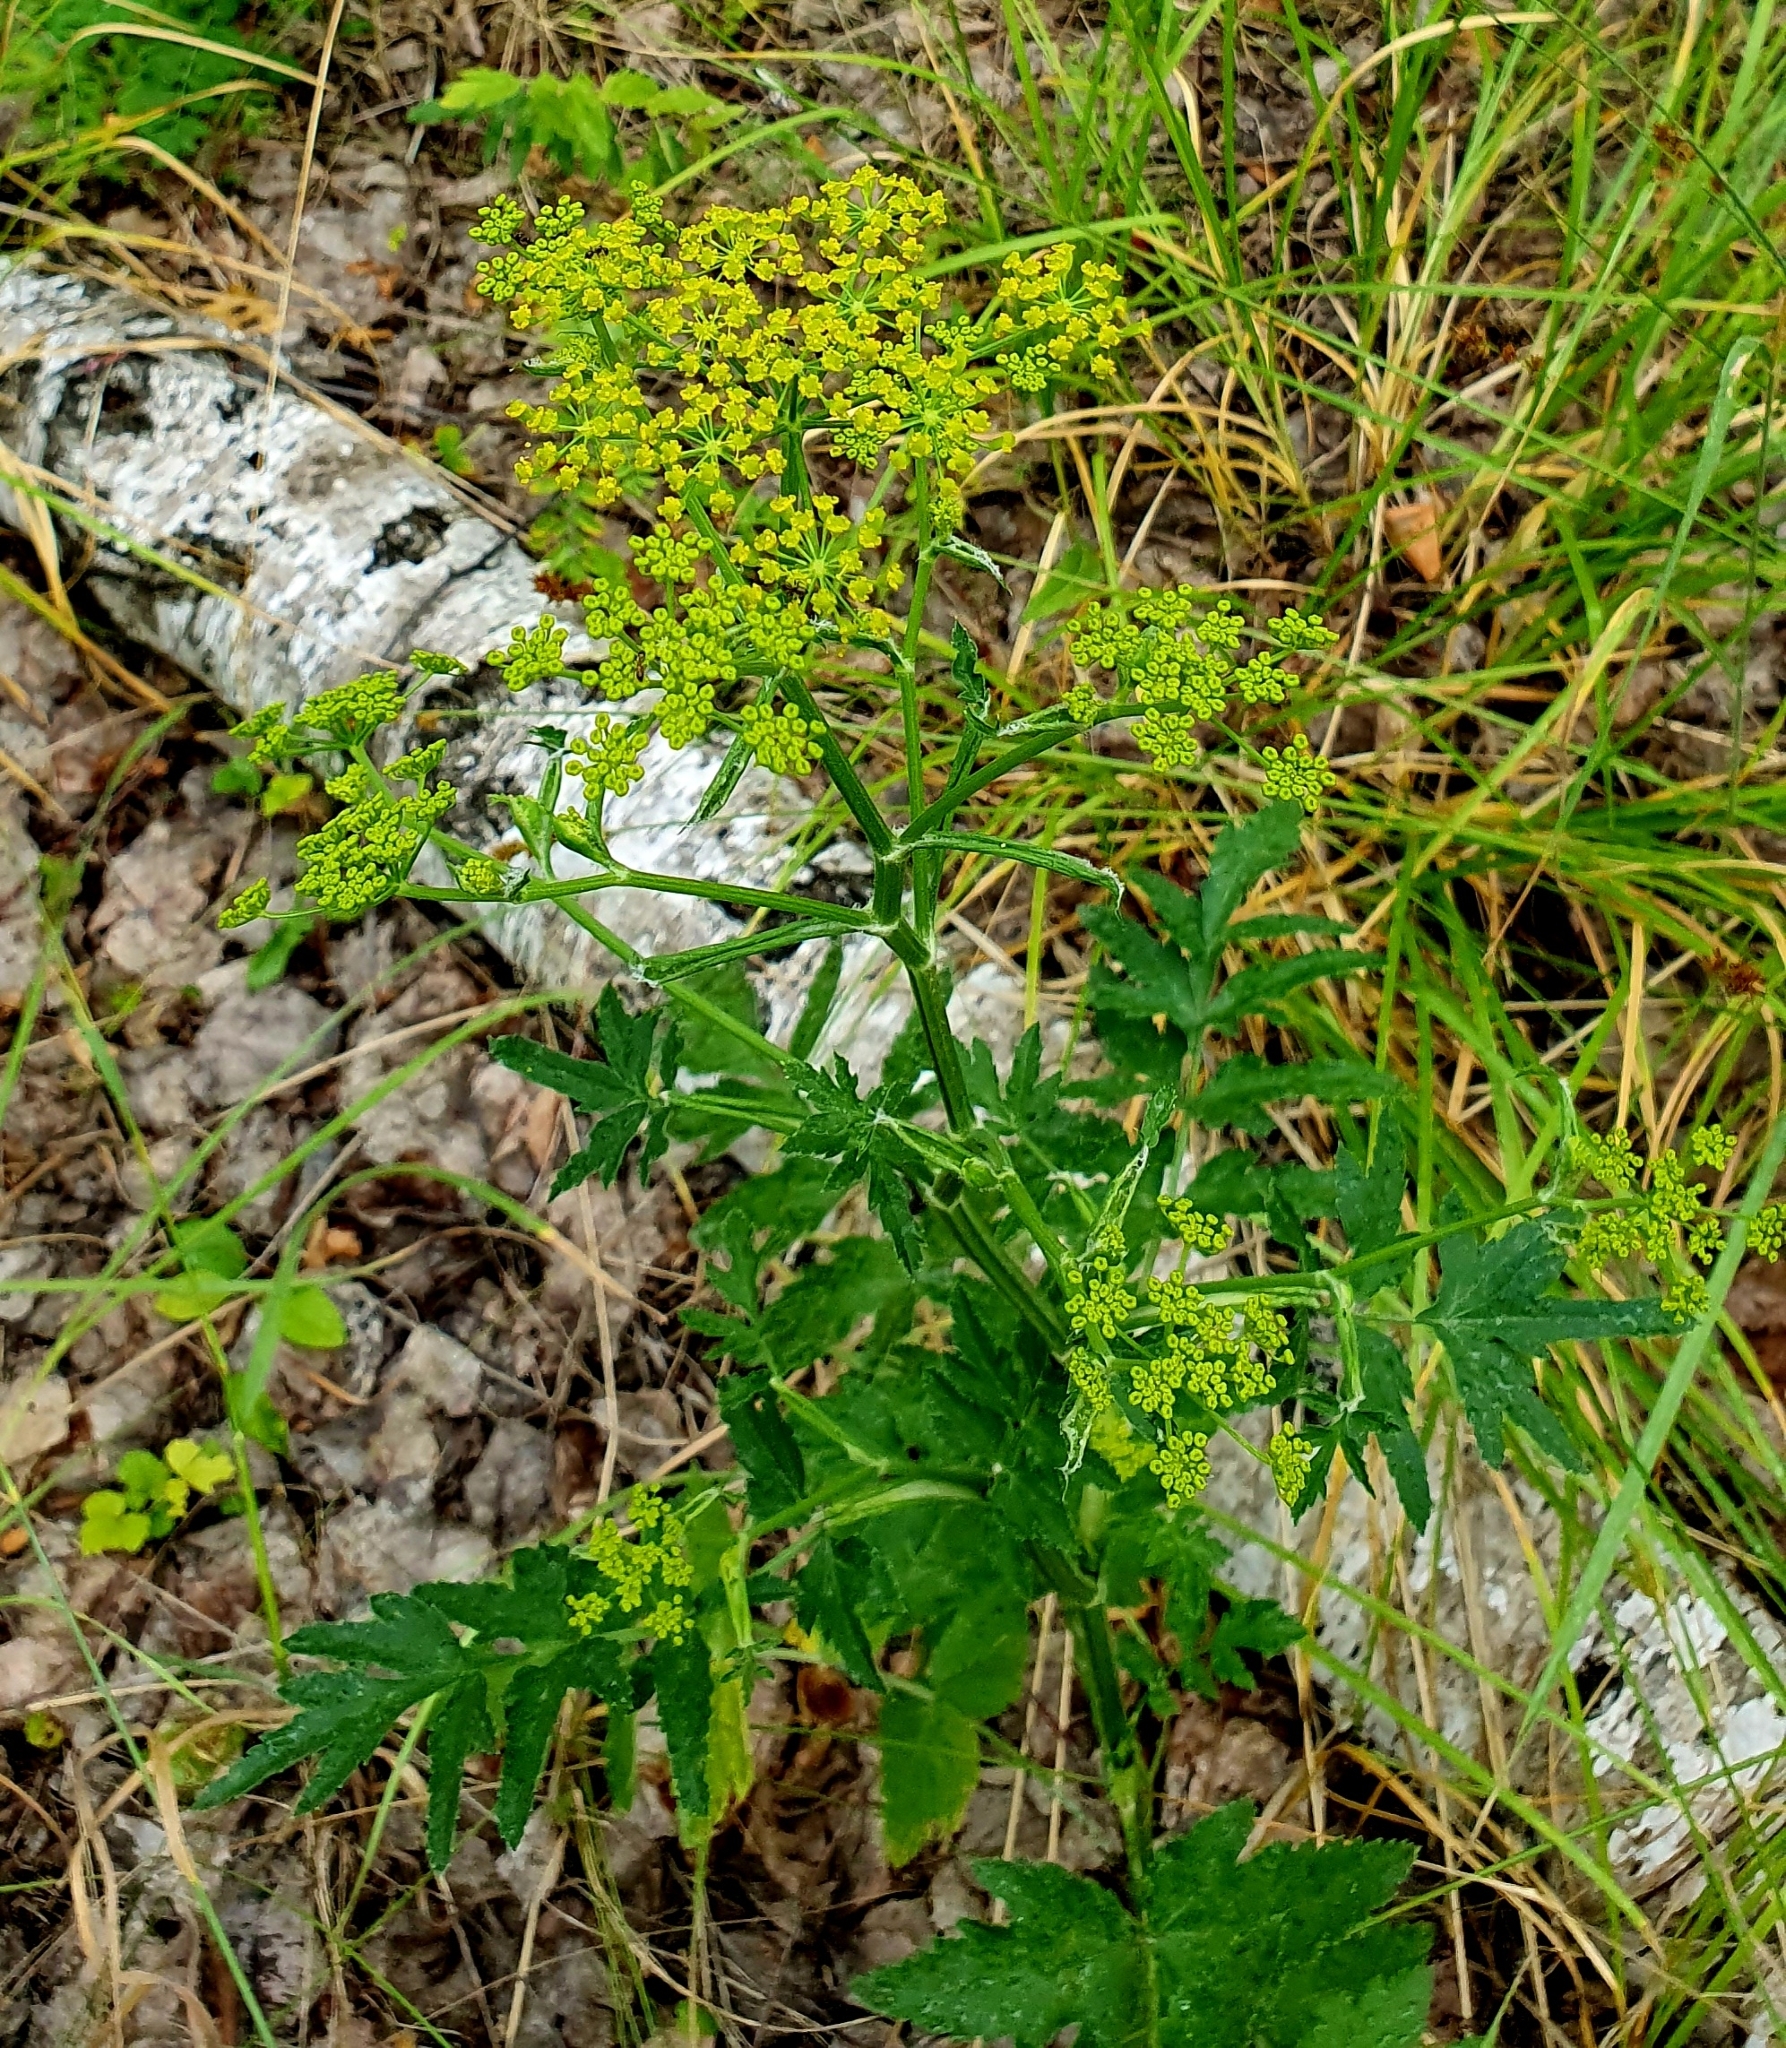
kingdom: Plantae
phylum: Tracheophyta
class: Magnoliopsida
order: Apiales
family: Apiaceae
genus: Pastinaca
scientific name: Pastinaca sativa
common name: Wild parsnip
